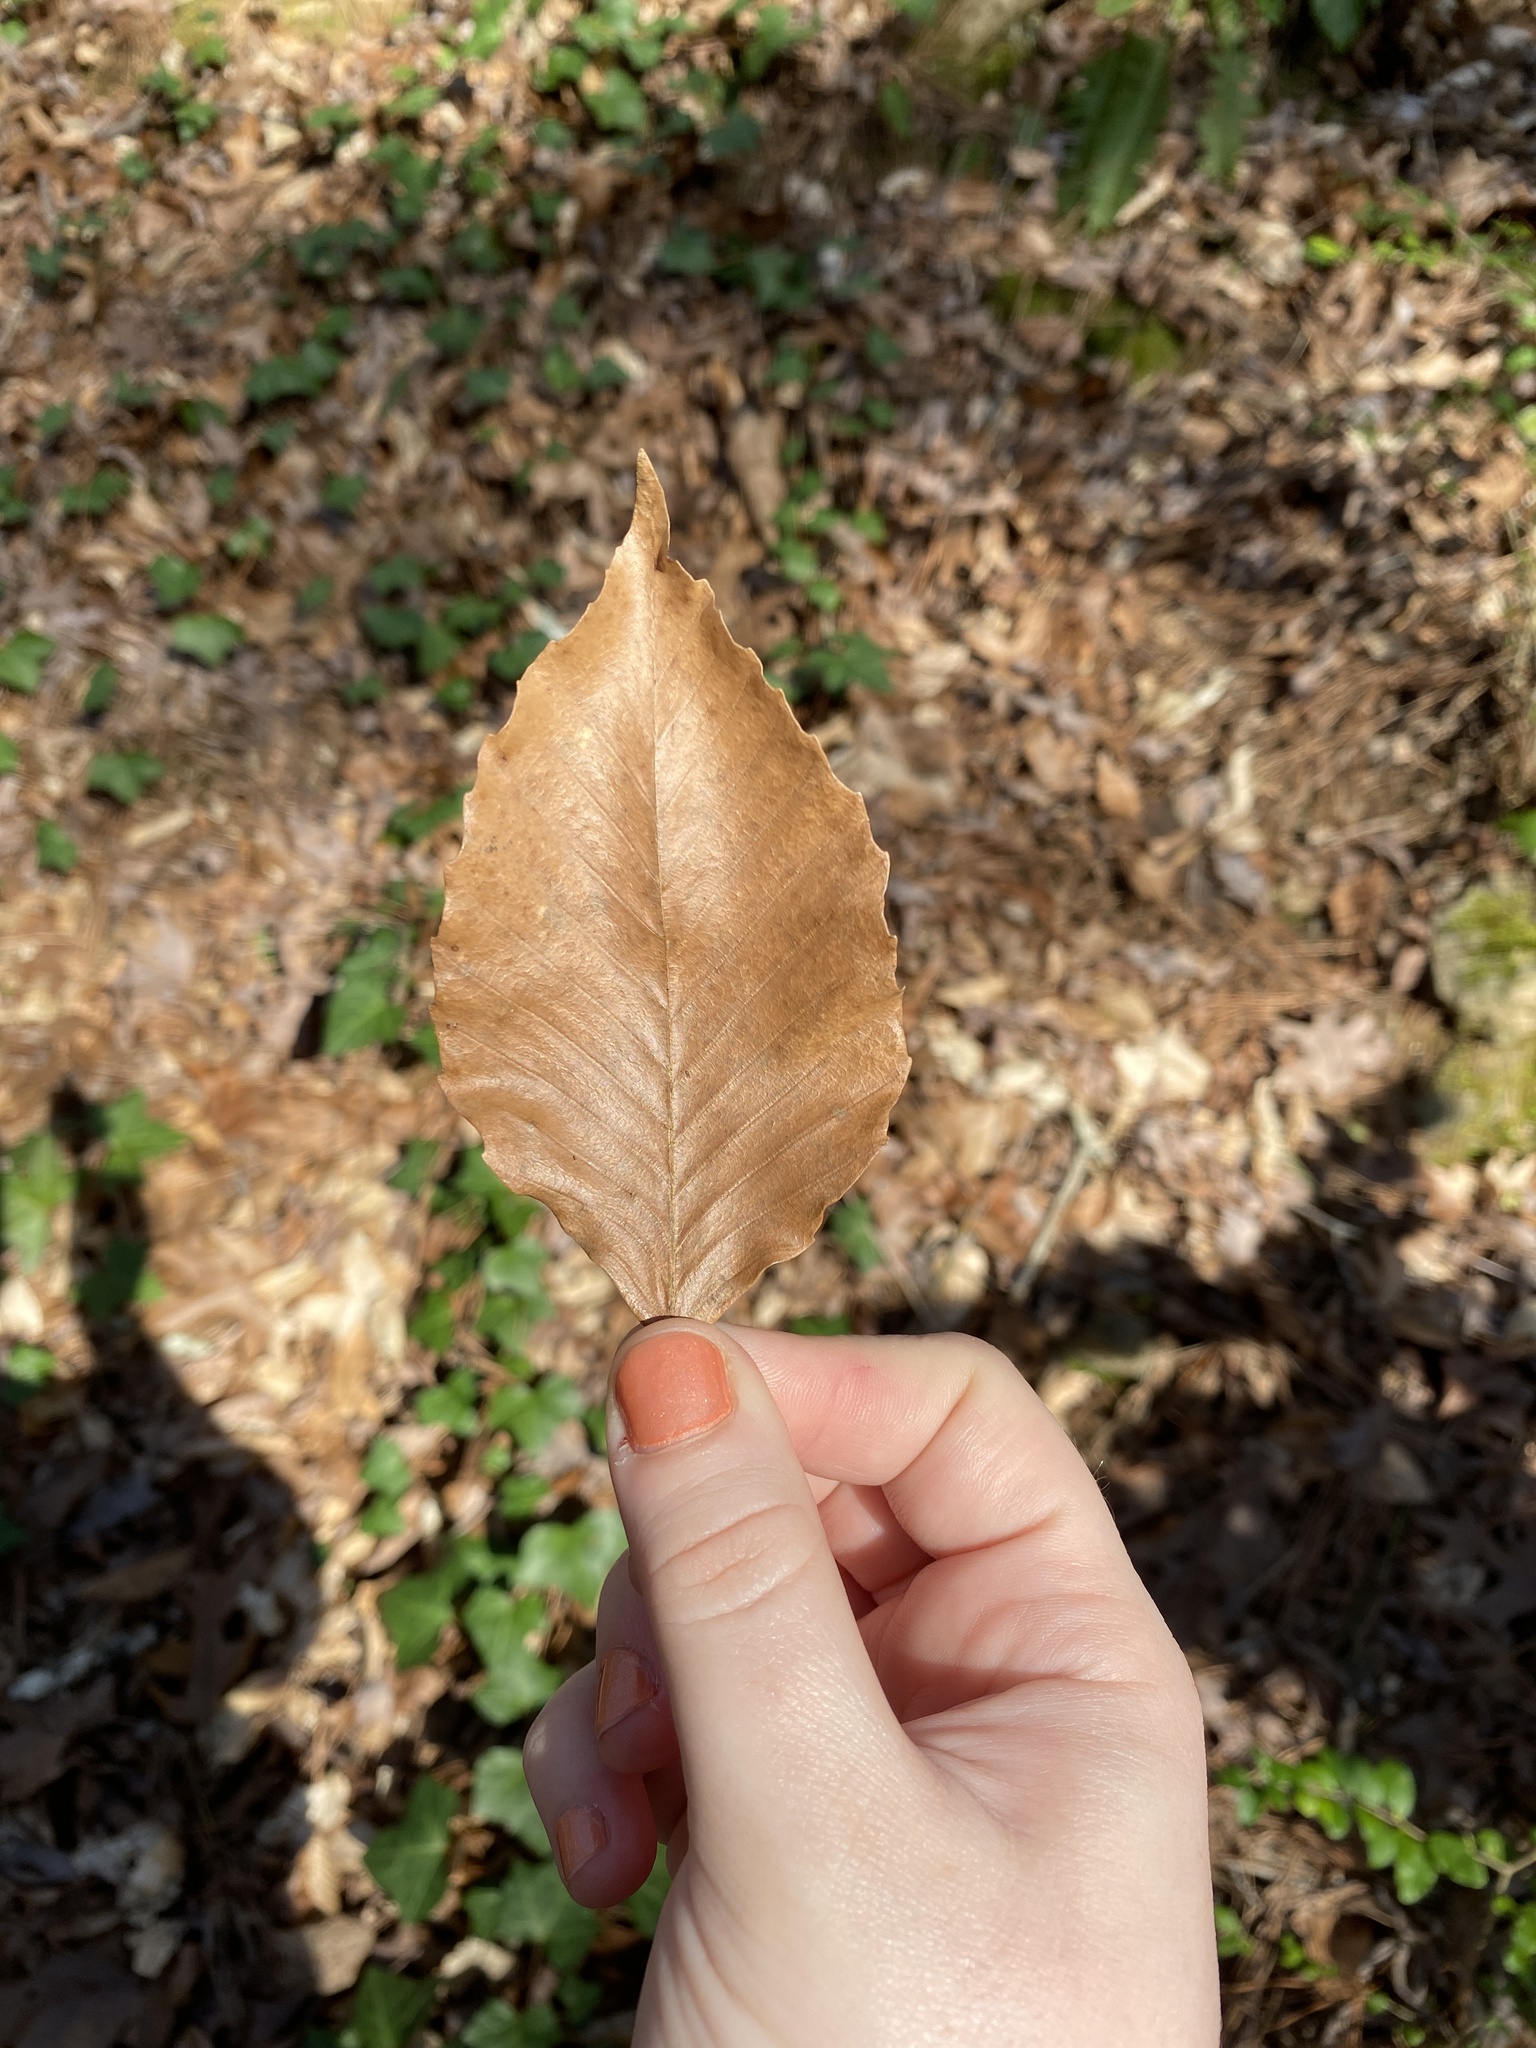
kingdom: Plantae
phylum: Tracheophyta
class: Magnoliopsida
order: Fagales
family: Fagaceae
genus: Fagus
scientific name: Fagus grandifolia
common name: American beech
